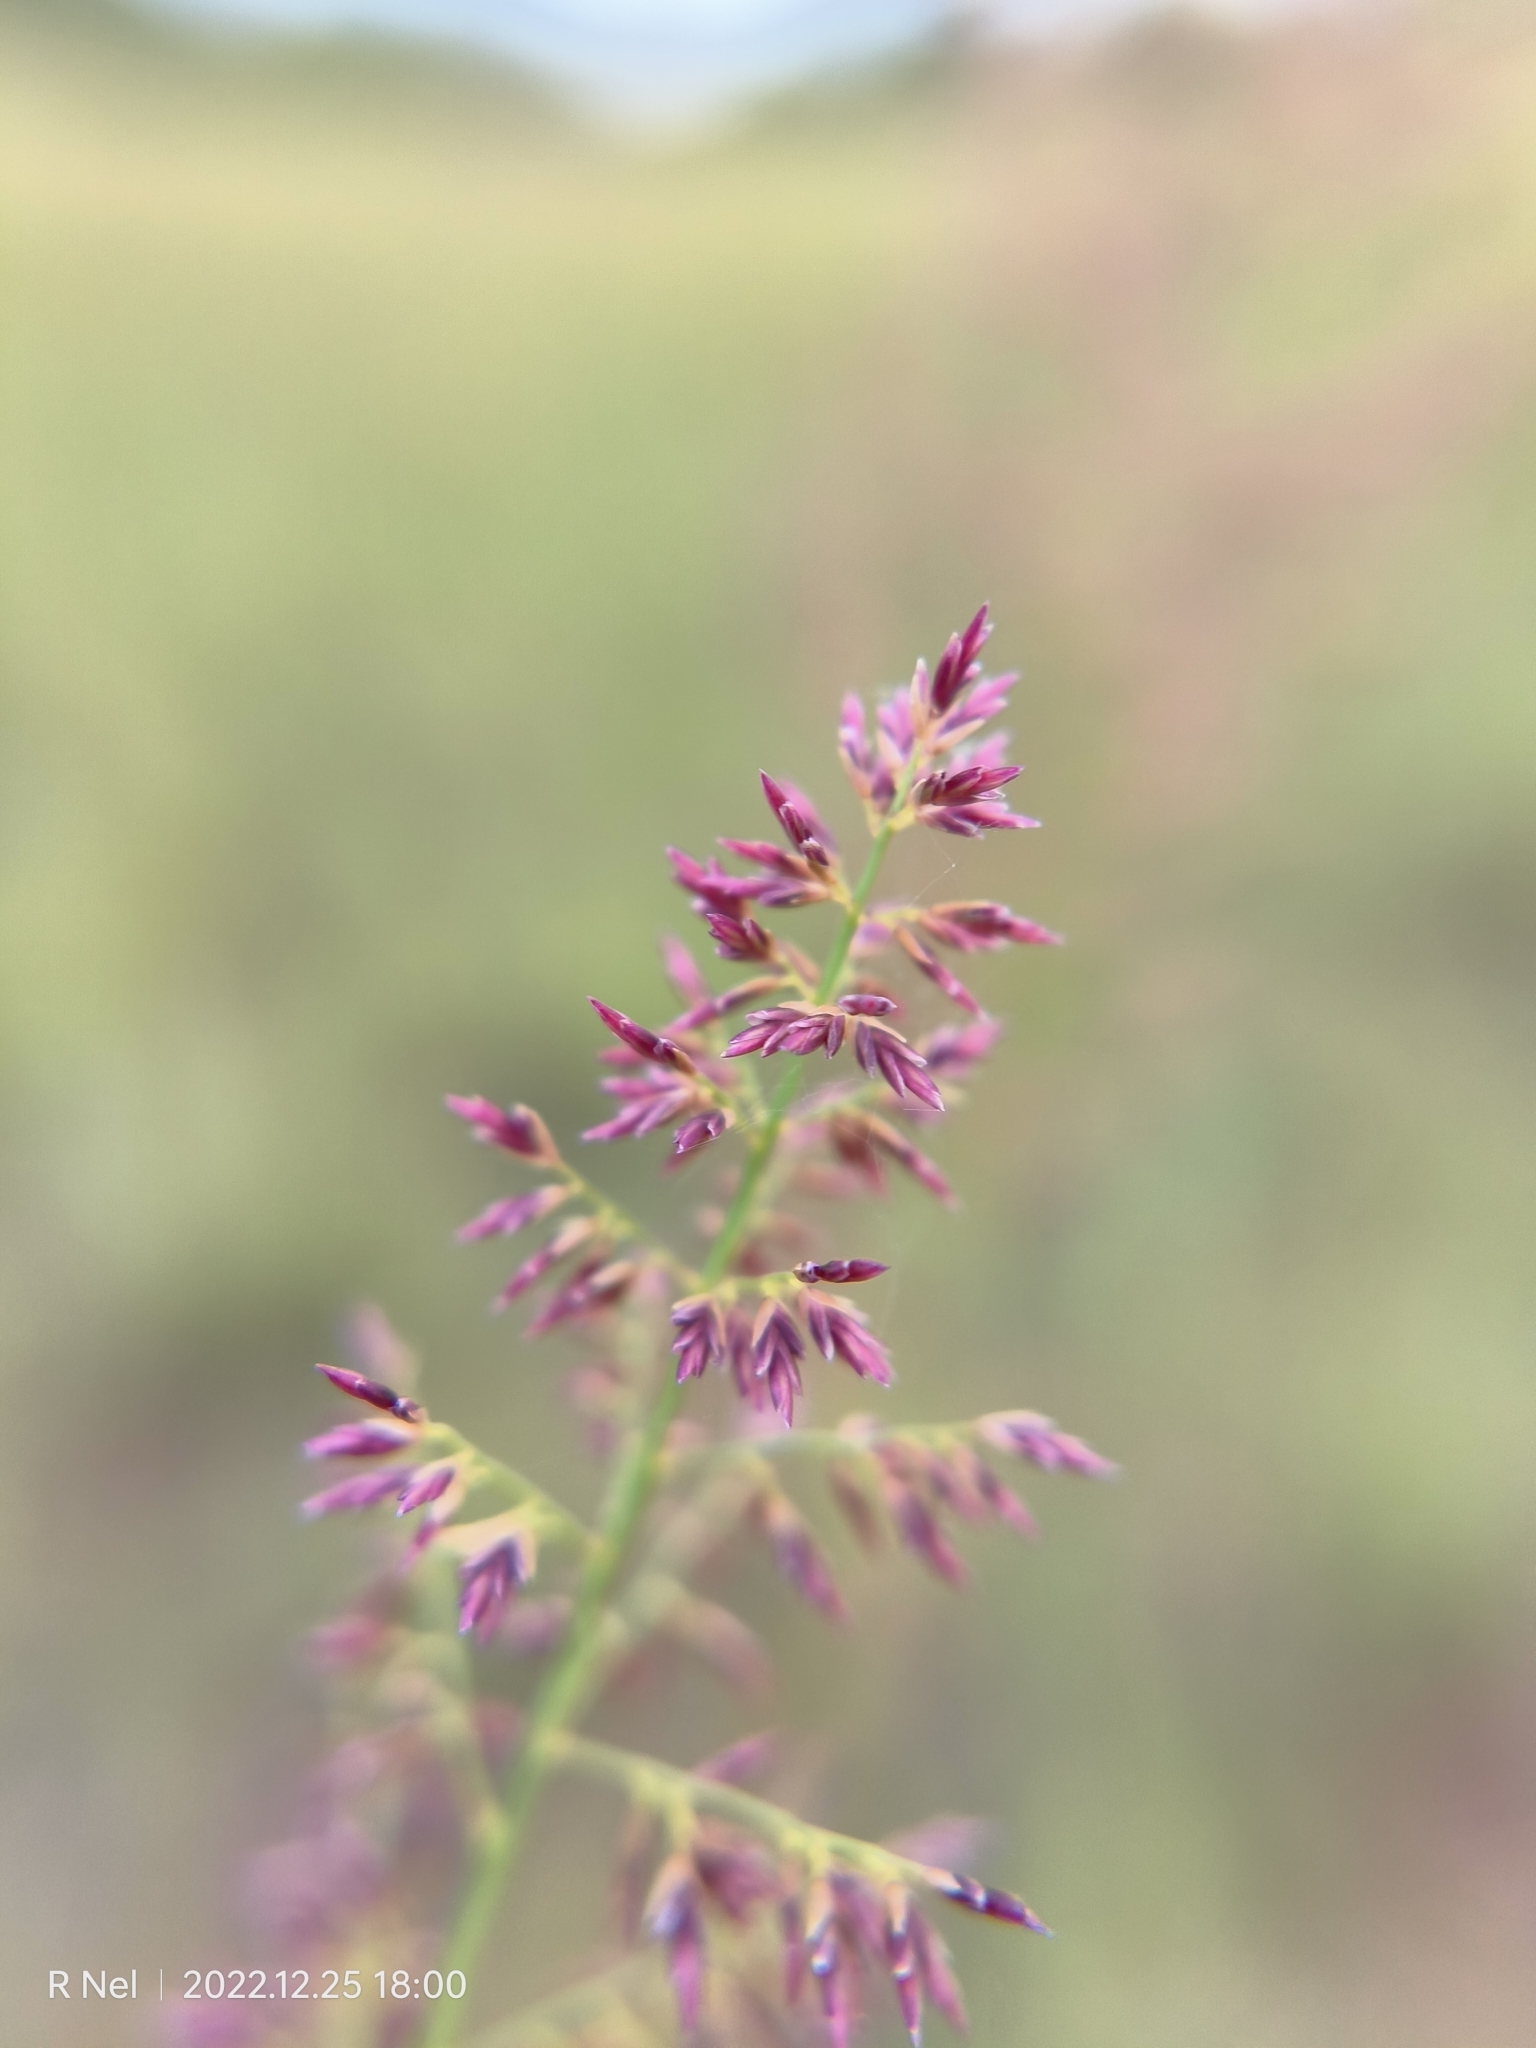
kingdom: Plantae
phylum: Tracheophyta
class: Liliopsida
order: Poales
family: Poaceae
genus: Eragrostis
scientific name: Eragrostis gummiflua
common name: Gum grass
